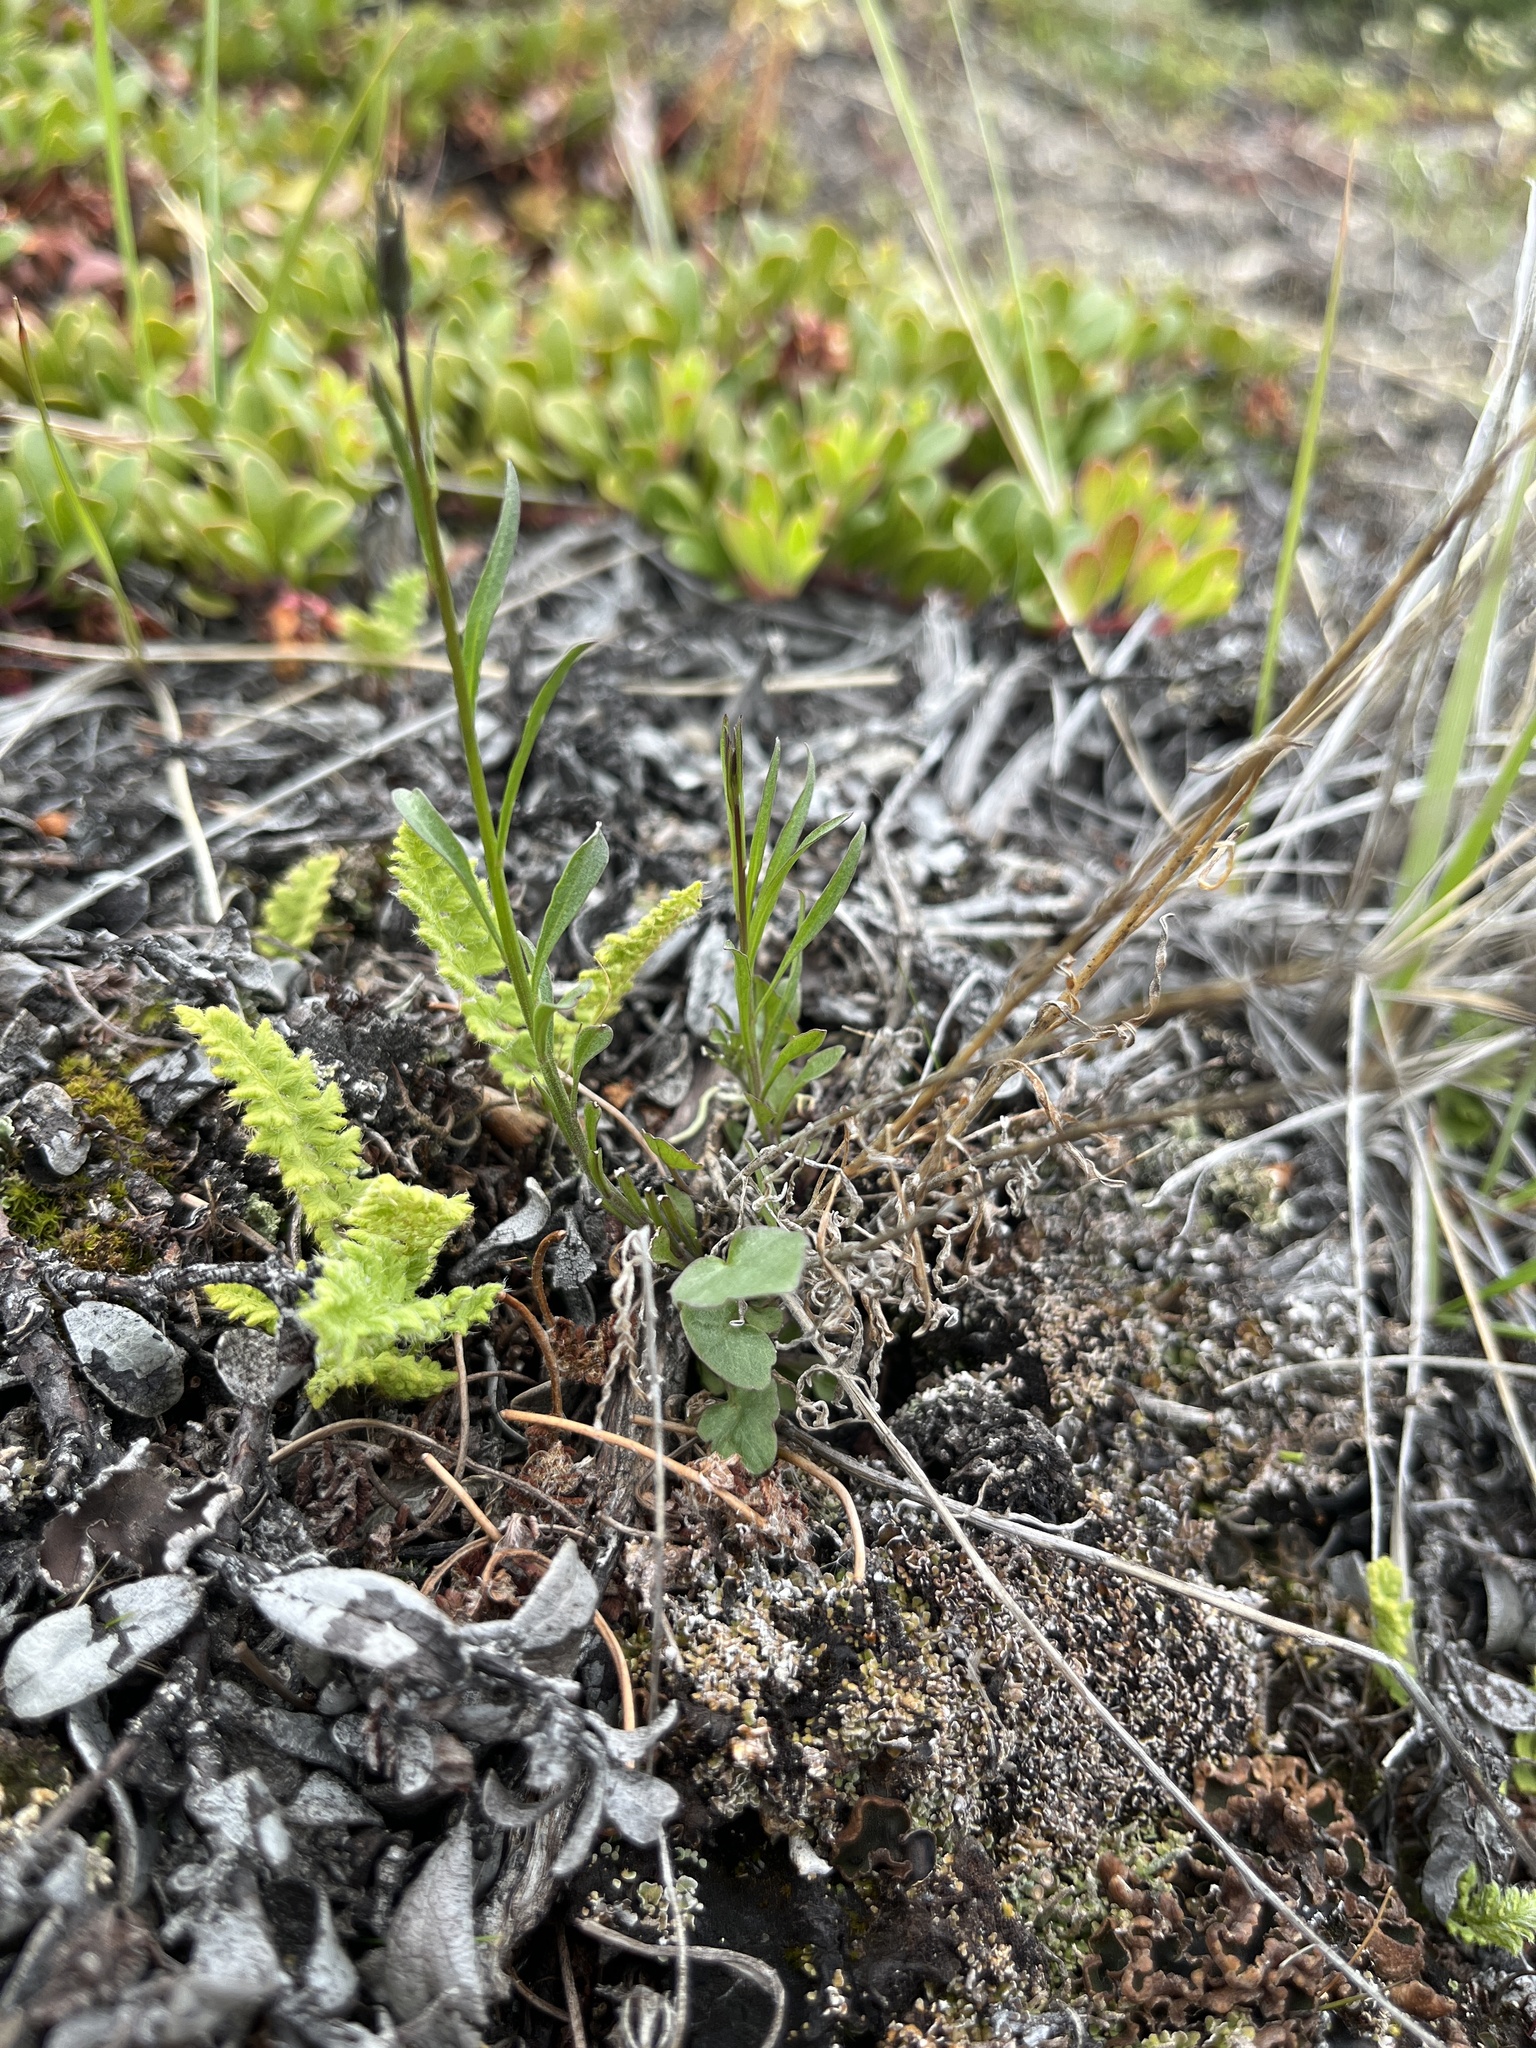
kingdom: Plantae
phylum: Tracheophyta
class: Magnoliopsida
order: Asterales
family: Campanulaceae
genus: Campanula
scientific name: Campanula giesekiana
